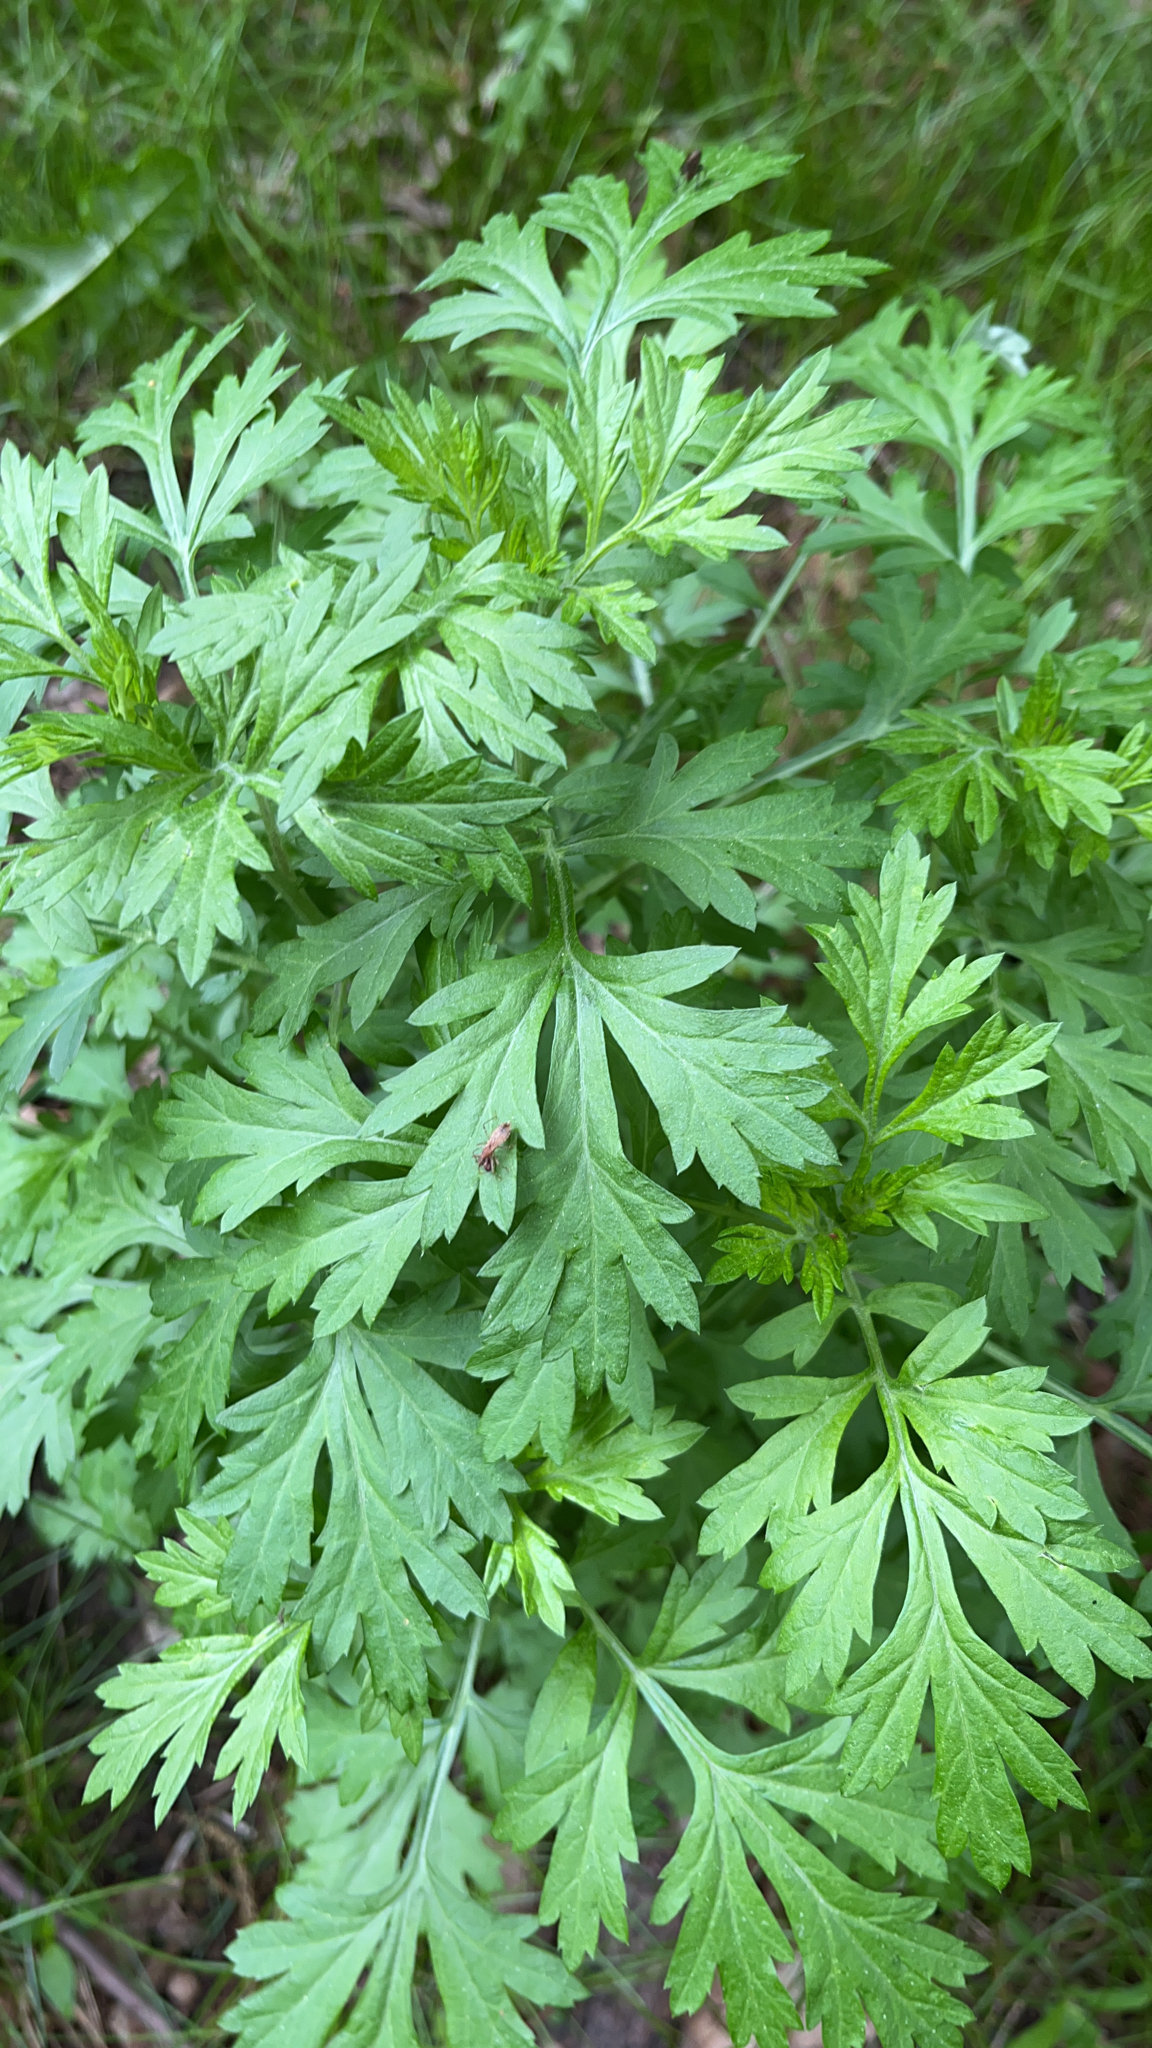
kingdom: Plantae
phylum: Tracheophyta
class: Magnoliopsida
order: Asterales
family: Asteraceae
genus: Artemisia
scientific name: Artemisia vulgaris
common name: Mugwort
